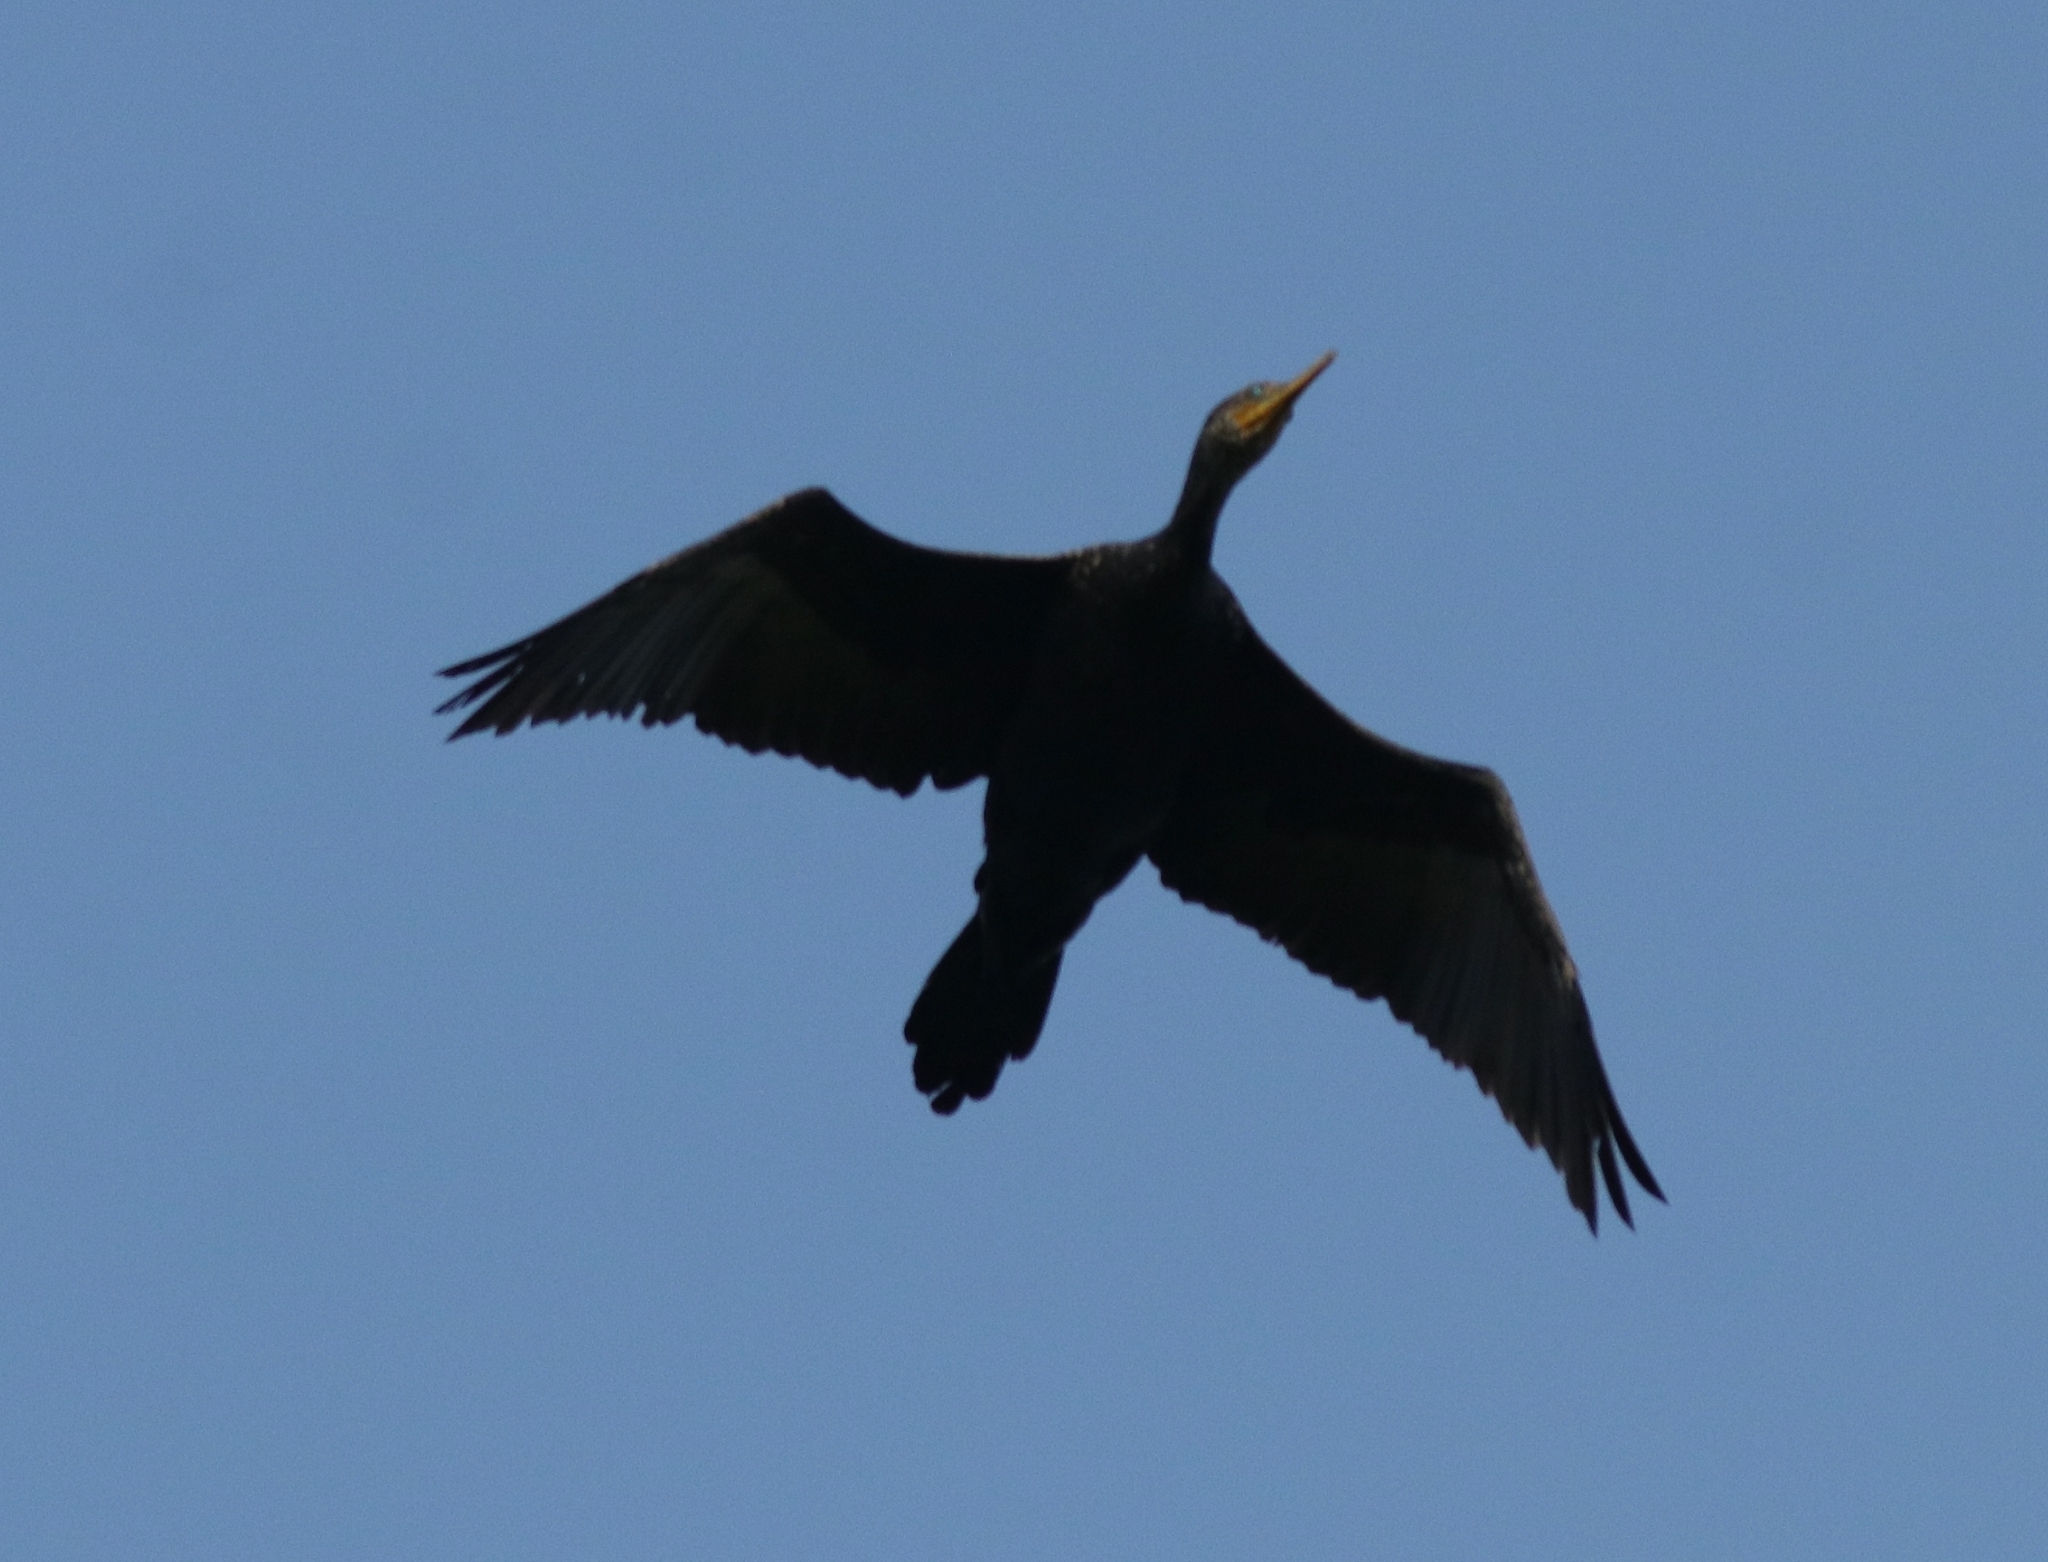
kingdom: Animalia
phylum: Chordata
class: Aves
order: Suliformes
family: Phalacrocoracidae
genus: Phalacrocorax
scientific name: Phalacrocorax fuscicollis
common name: Indian cormorant
